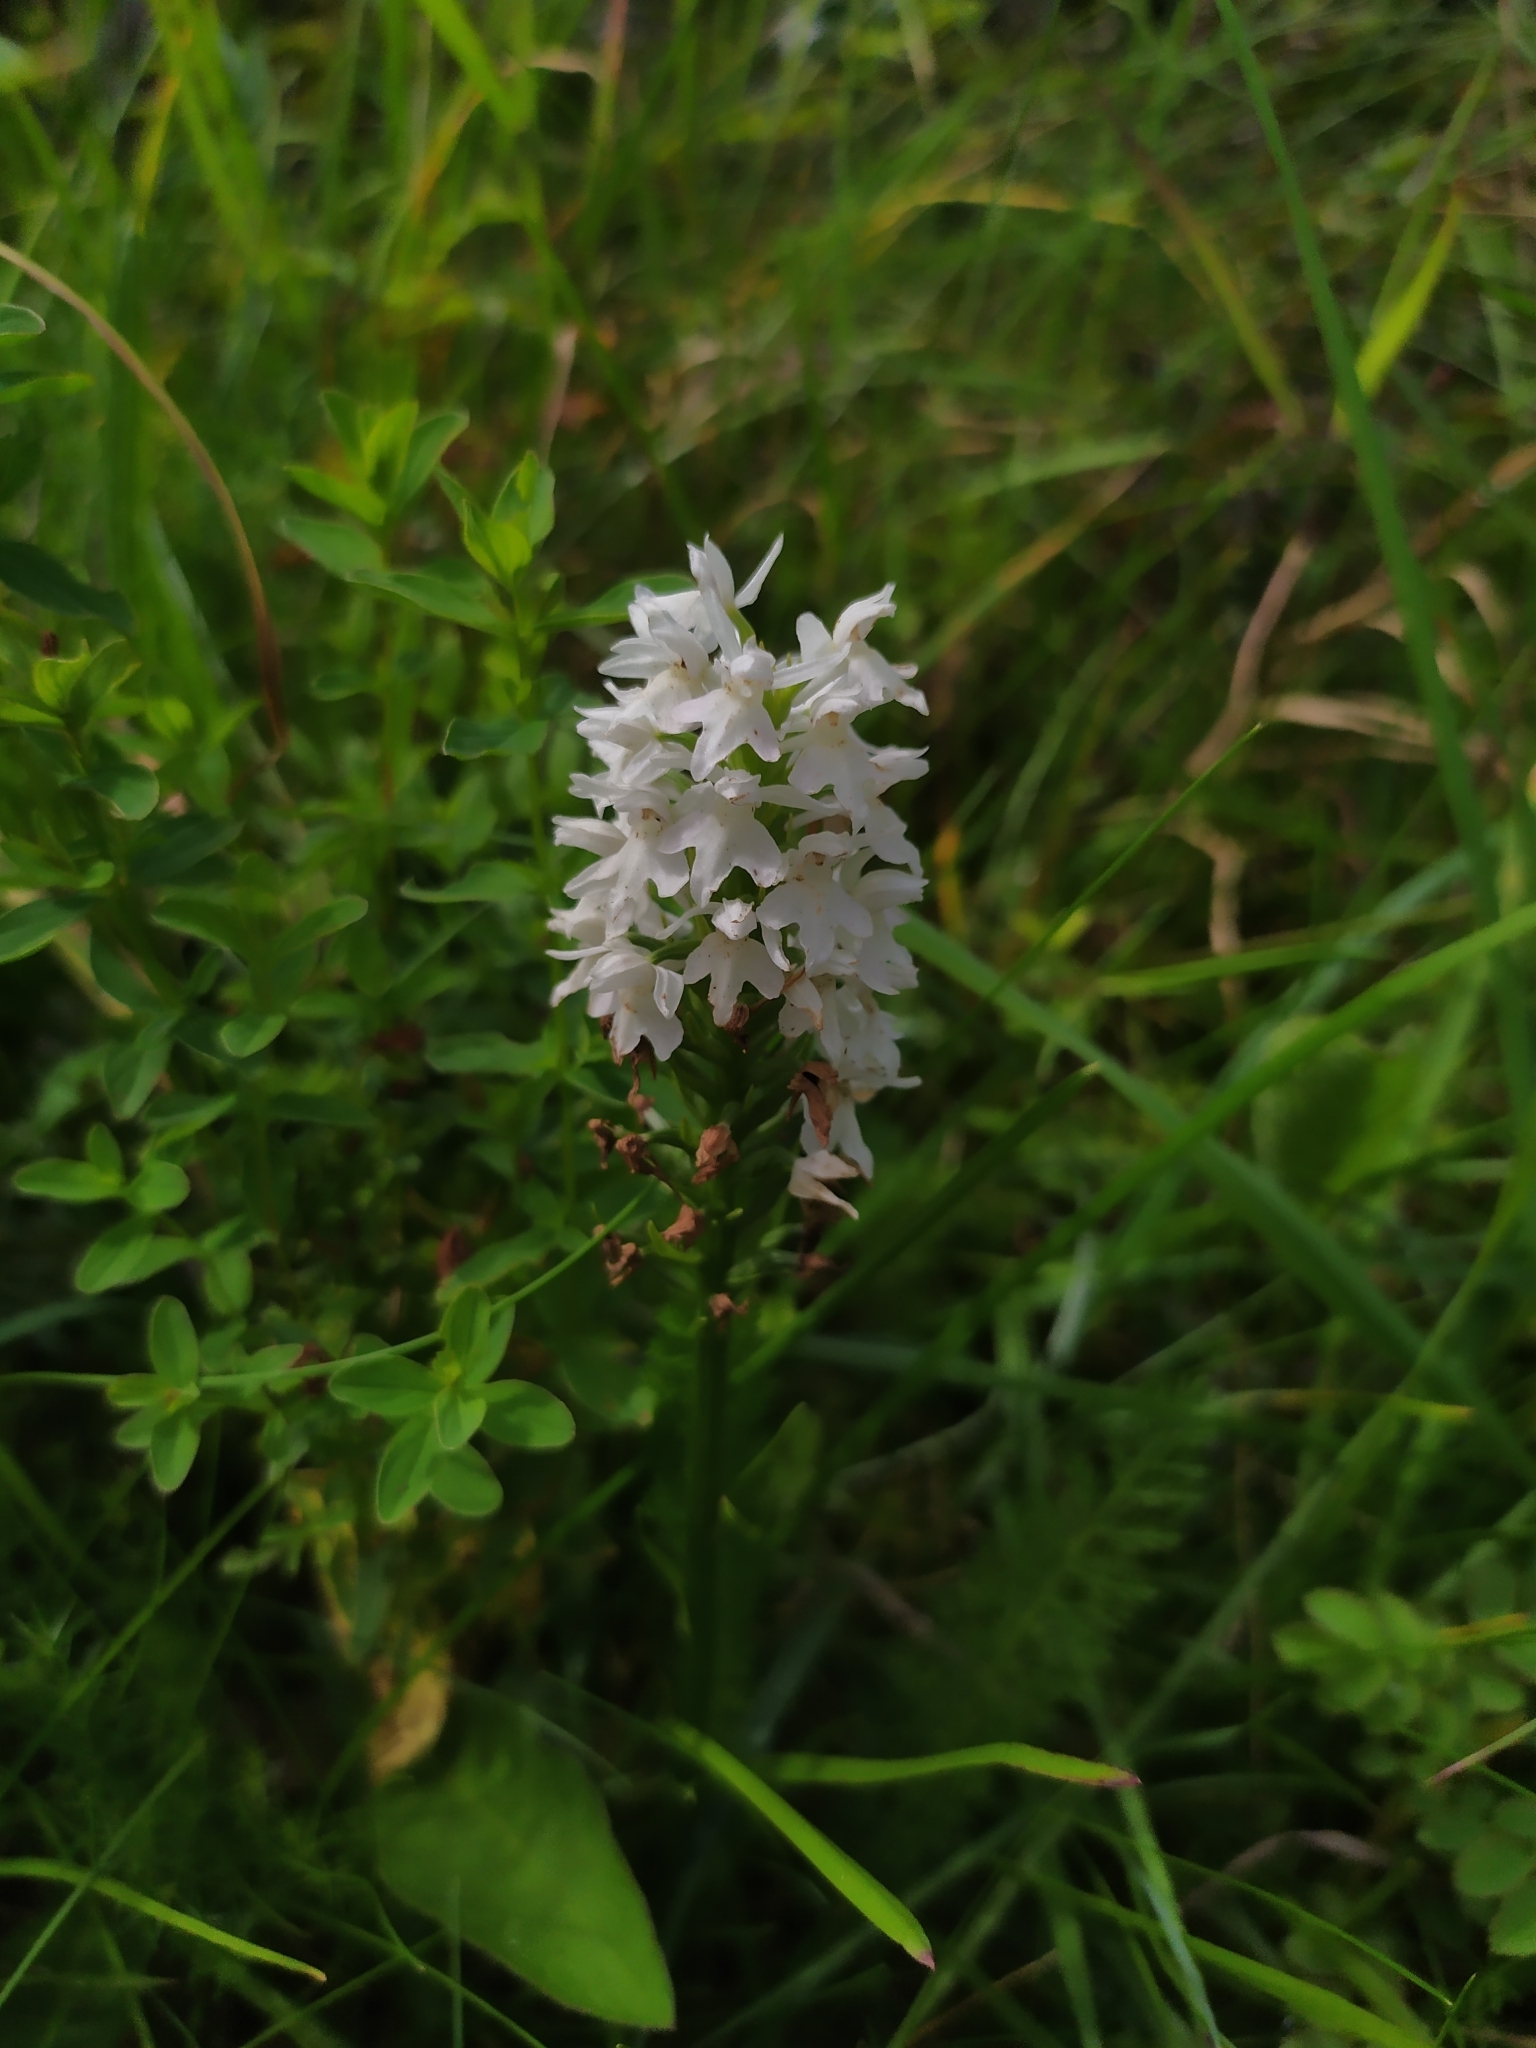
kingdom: Plantae
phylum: Tracheophyta
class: Liliopsida
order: Asparagales
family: Orchidaceae
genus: Dactylorhiza
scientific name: Dactylorhiza maculata
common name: Heath spotted-orchid
